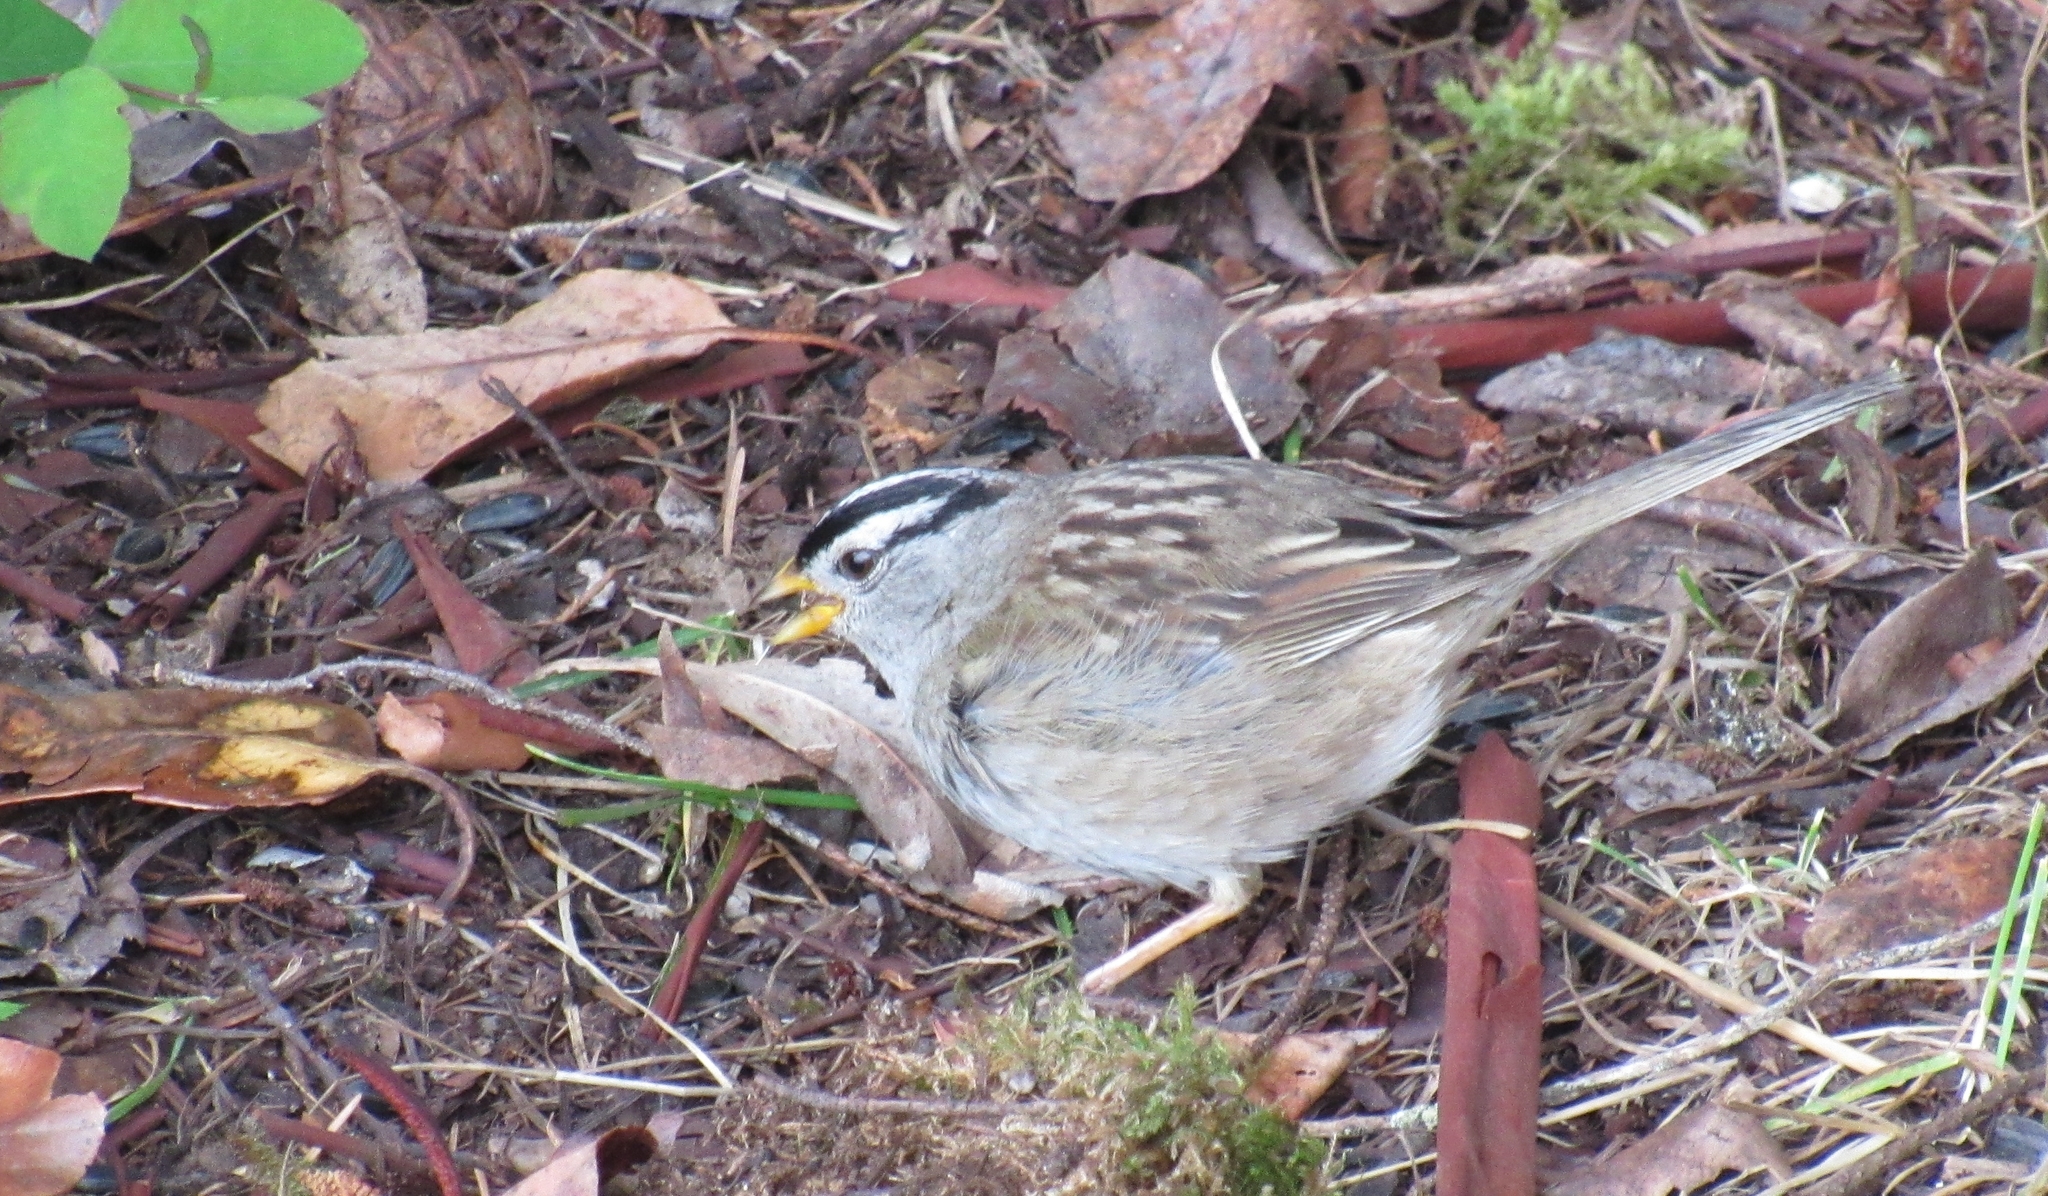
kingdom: Animalia
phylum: Chordata
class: Aves
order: Passeriformes
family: Passerellidae
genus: Zonotrichia
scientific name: Zonotrichia leucophrys
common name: White-crowned sparrow
